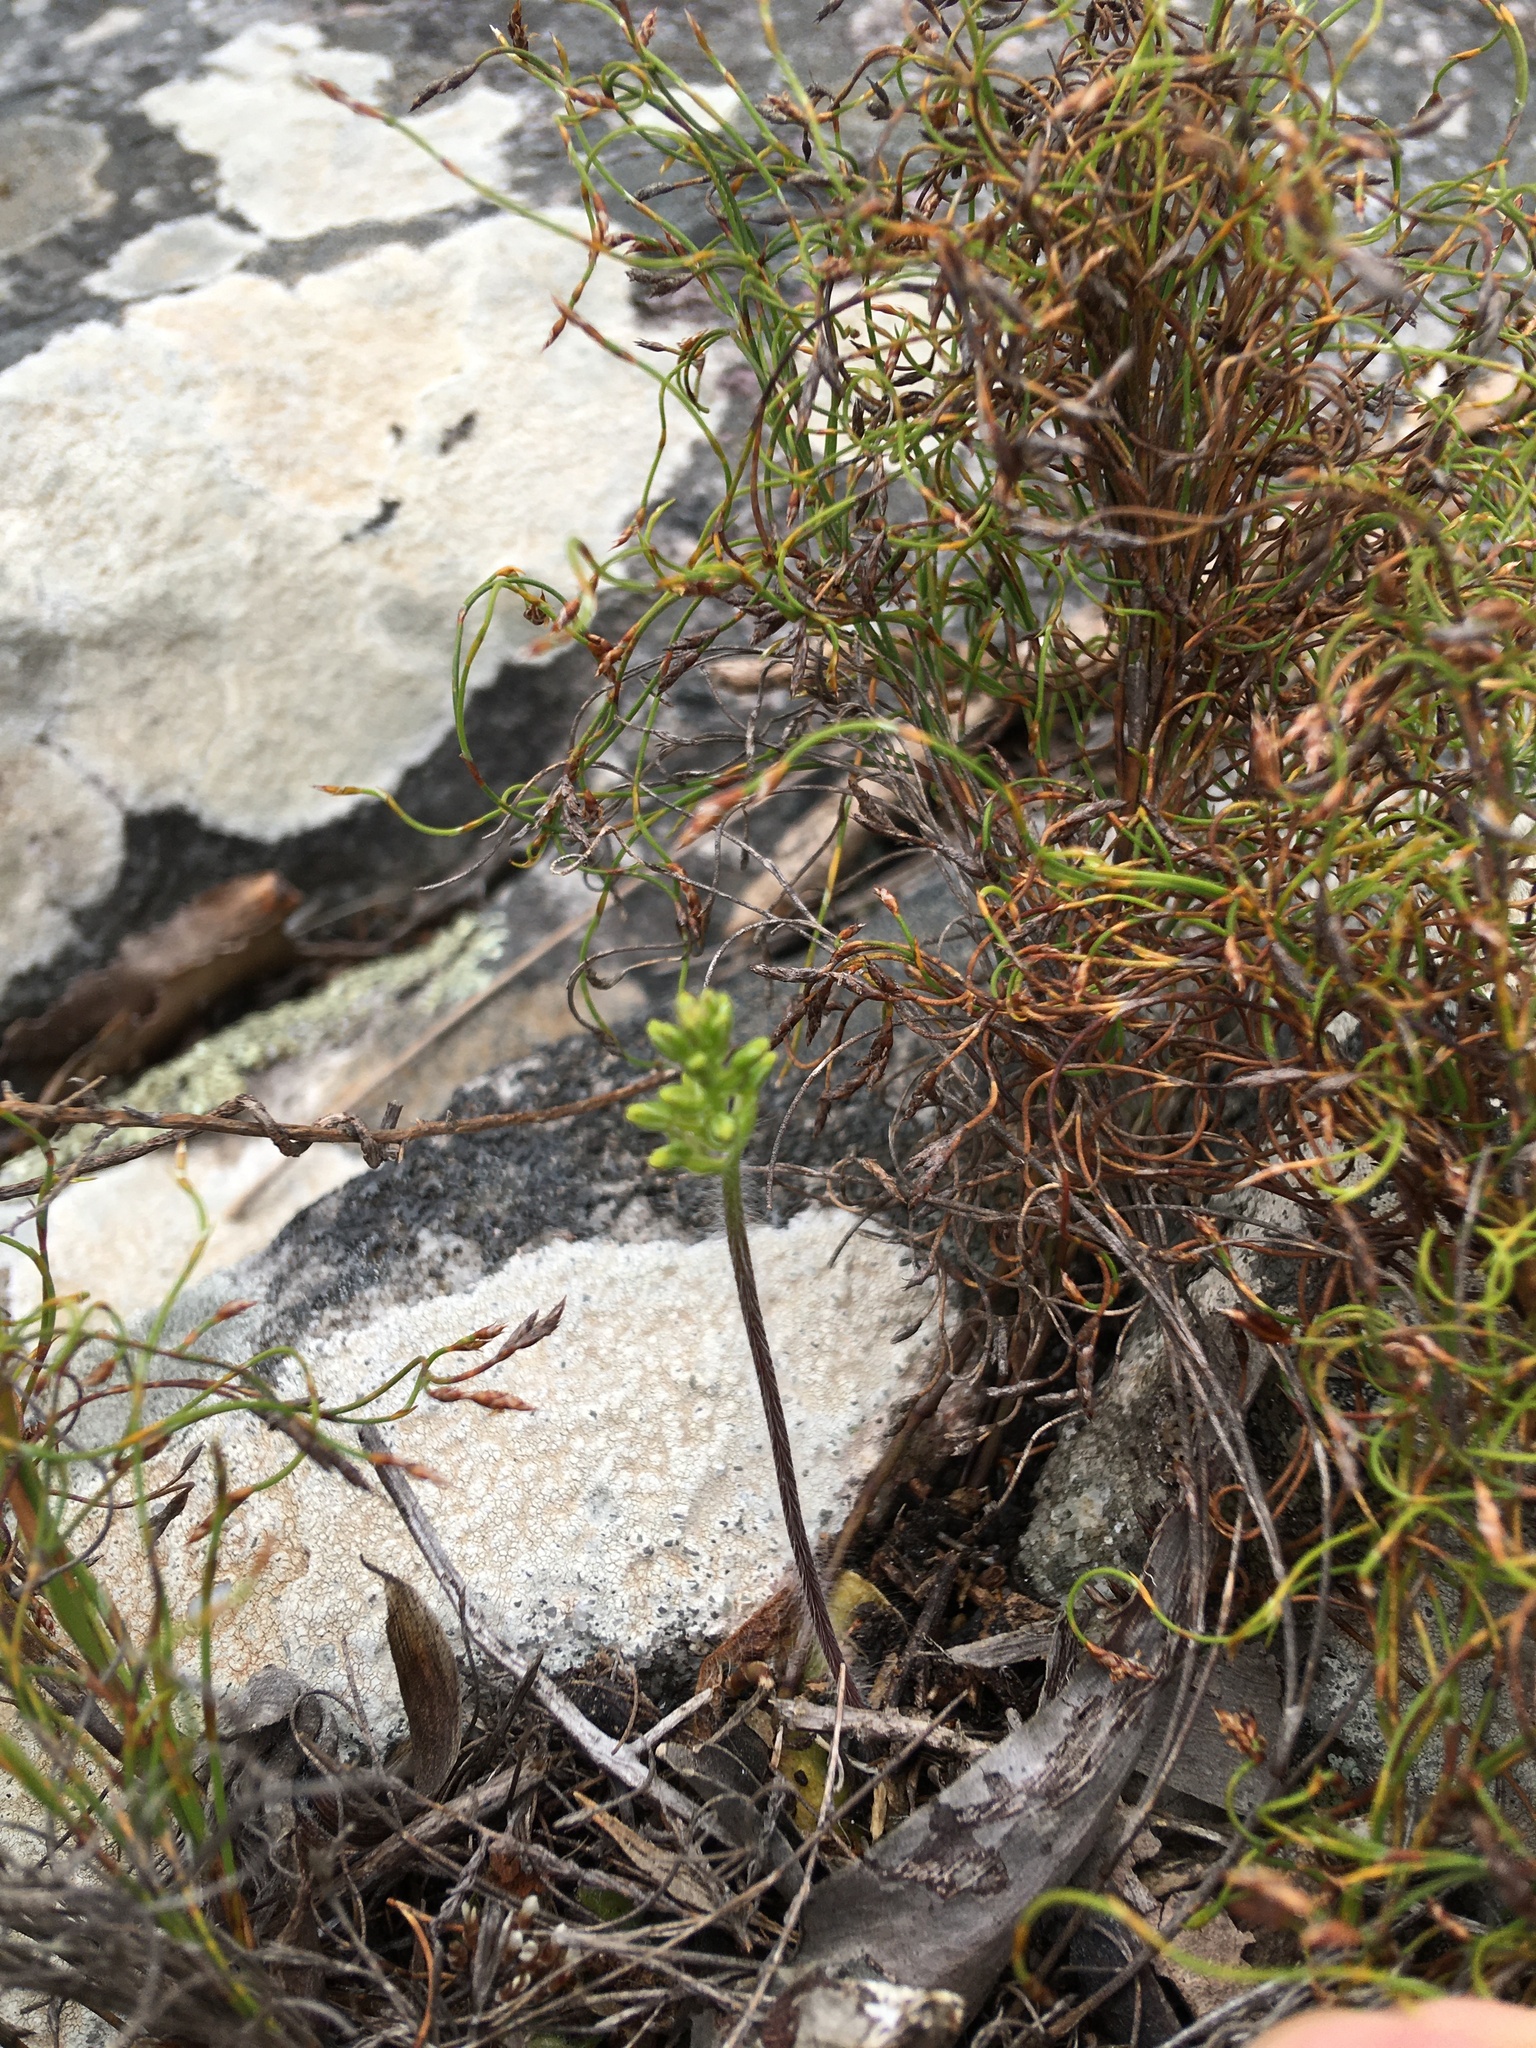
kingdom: Plantae
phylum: Tracheophyta
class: Liliopsida
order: Asparagales
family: Orchidaceae
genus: Holothrix
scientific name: Holothrix villosa
